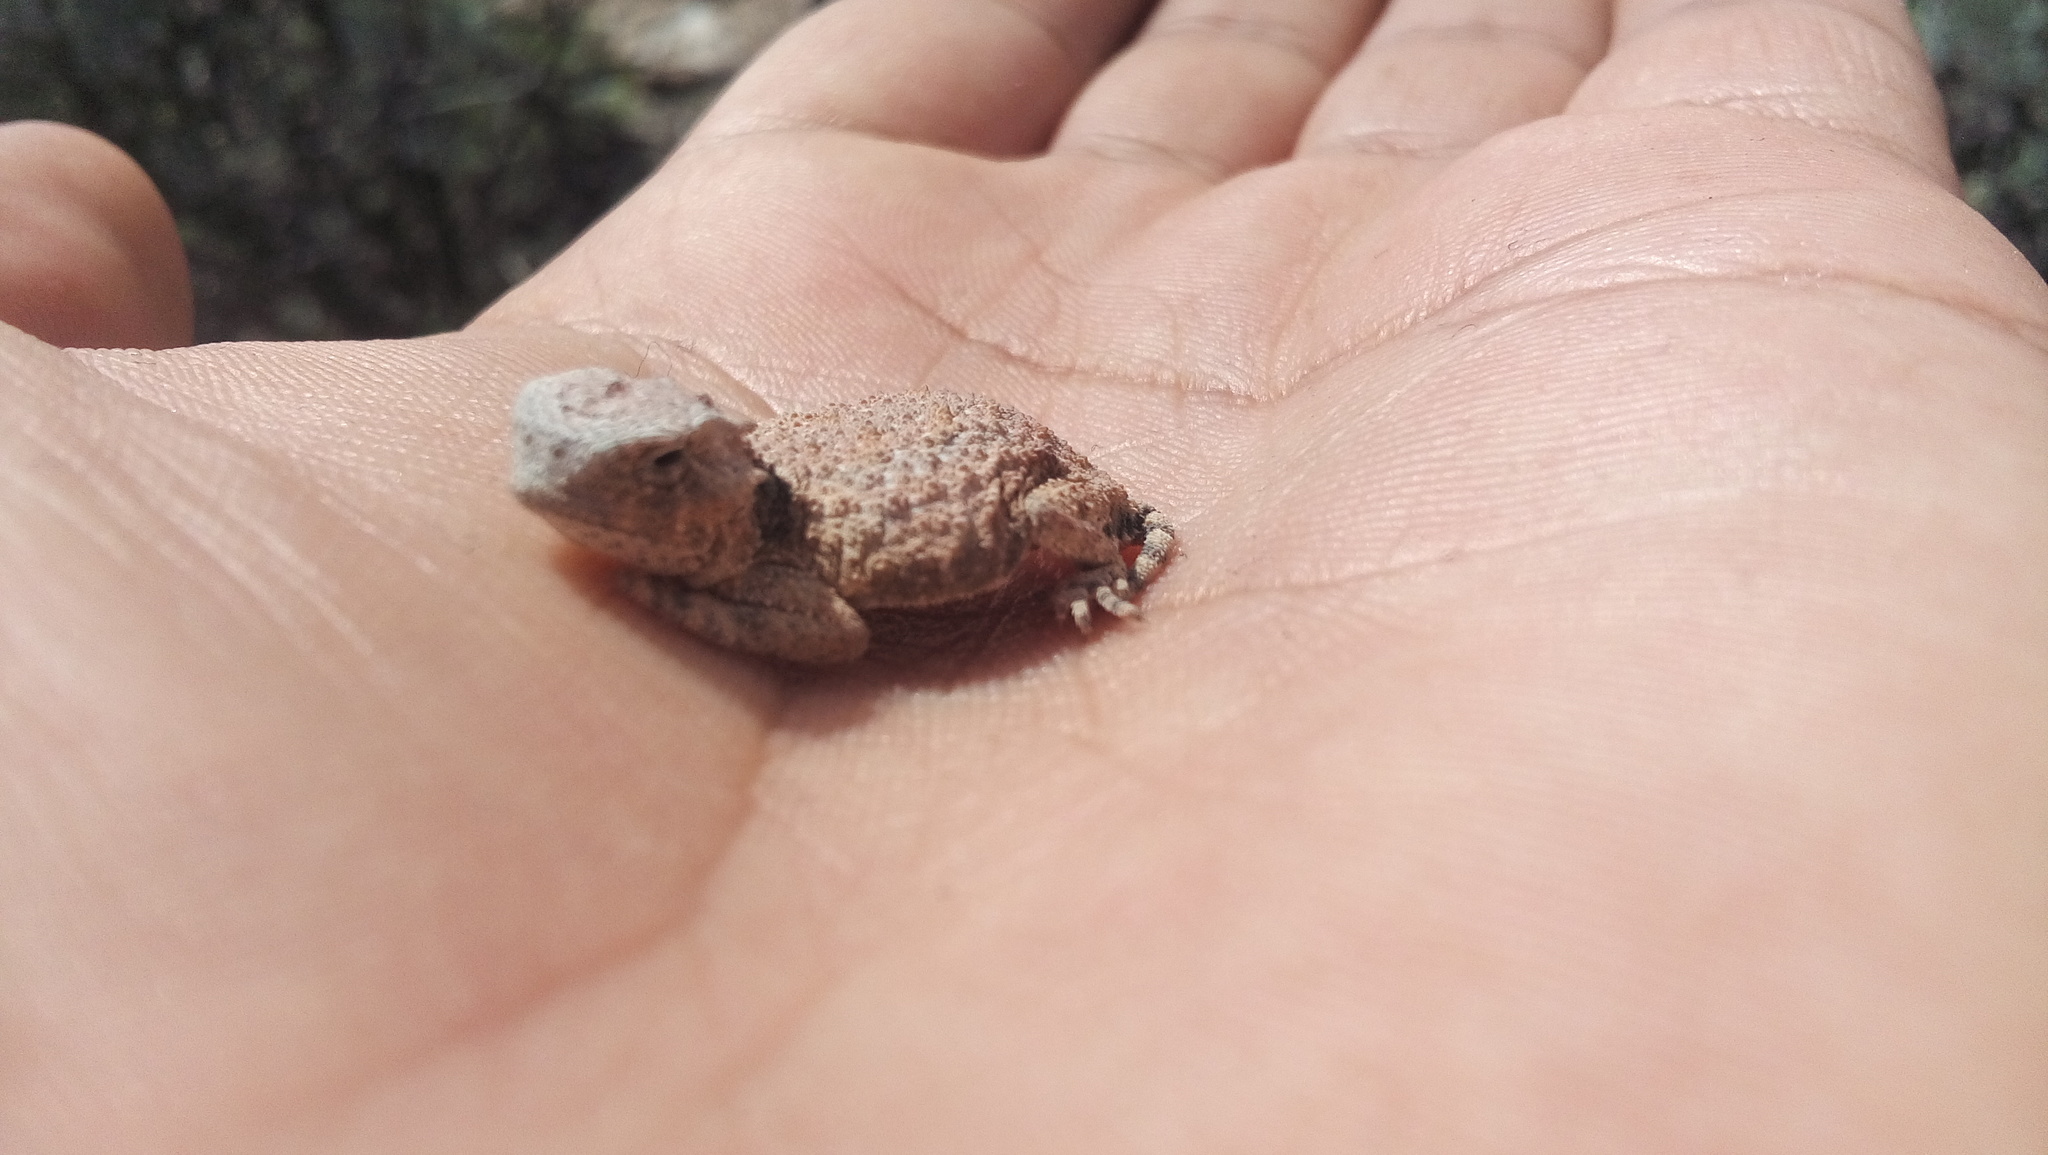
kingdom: Animalia
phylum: Chordata
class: Squamata
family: Phrynosomatidae
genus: Phrynosoma
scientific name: Phrynosoma modestum
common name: Roundtail horned lizard
